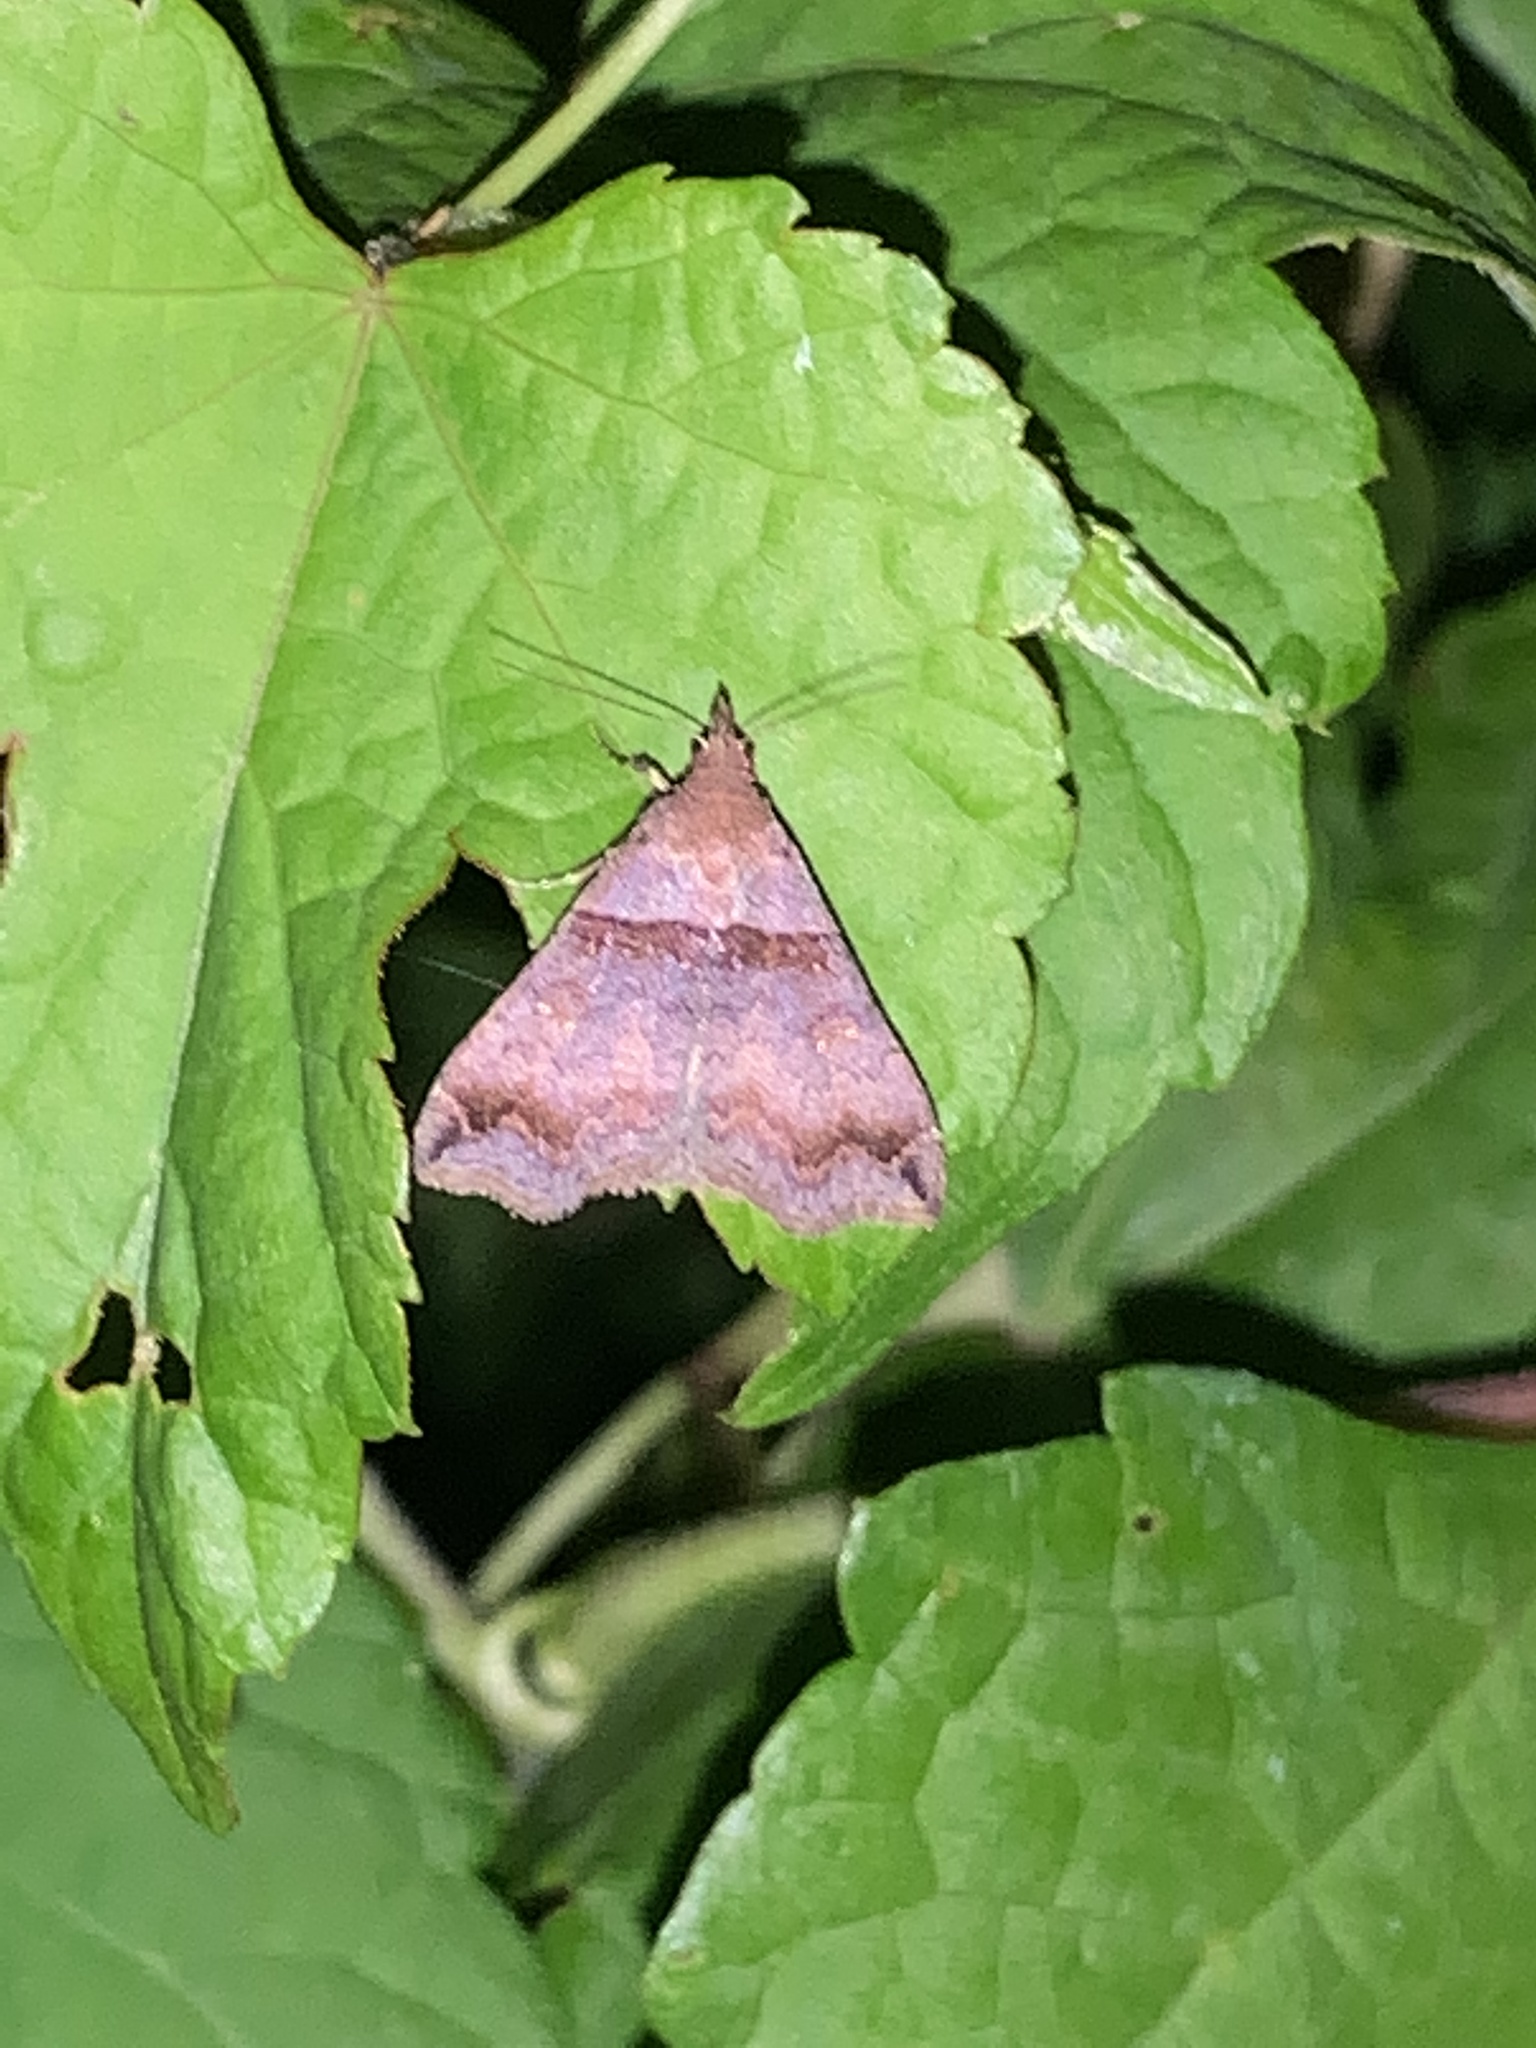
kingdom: Animalia
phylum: Arthropoda
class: Insecta
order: Lepidoptera
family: Erebidae
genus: Lascoria
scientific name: Lascoria ambigualis
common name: Ambiguous moth
